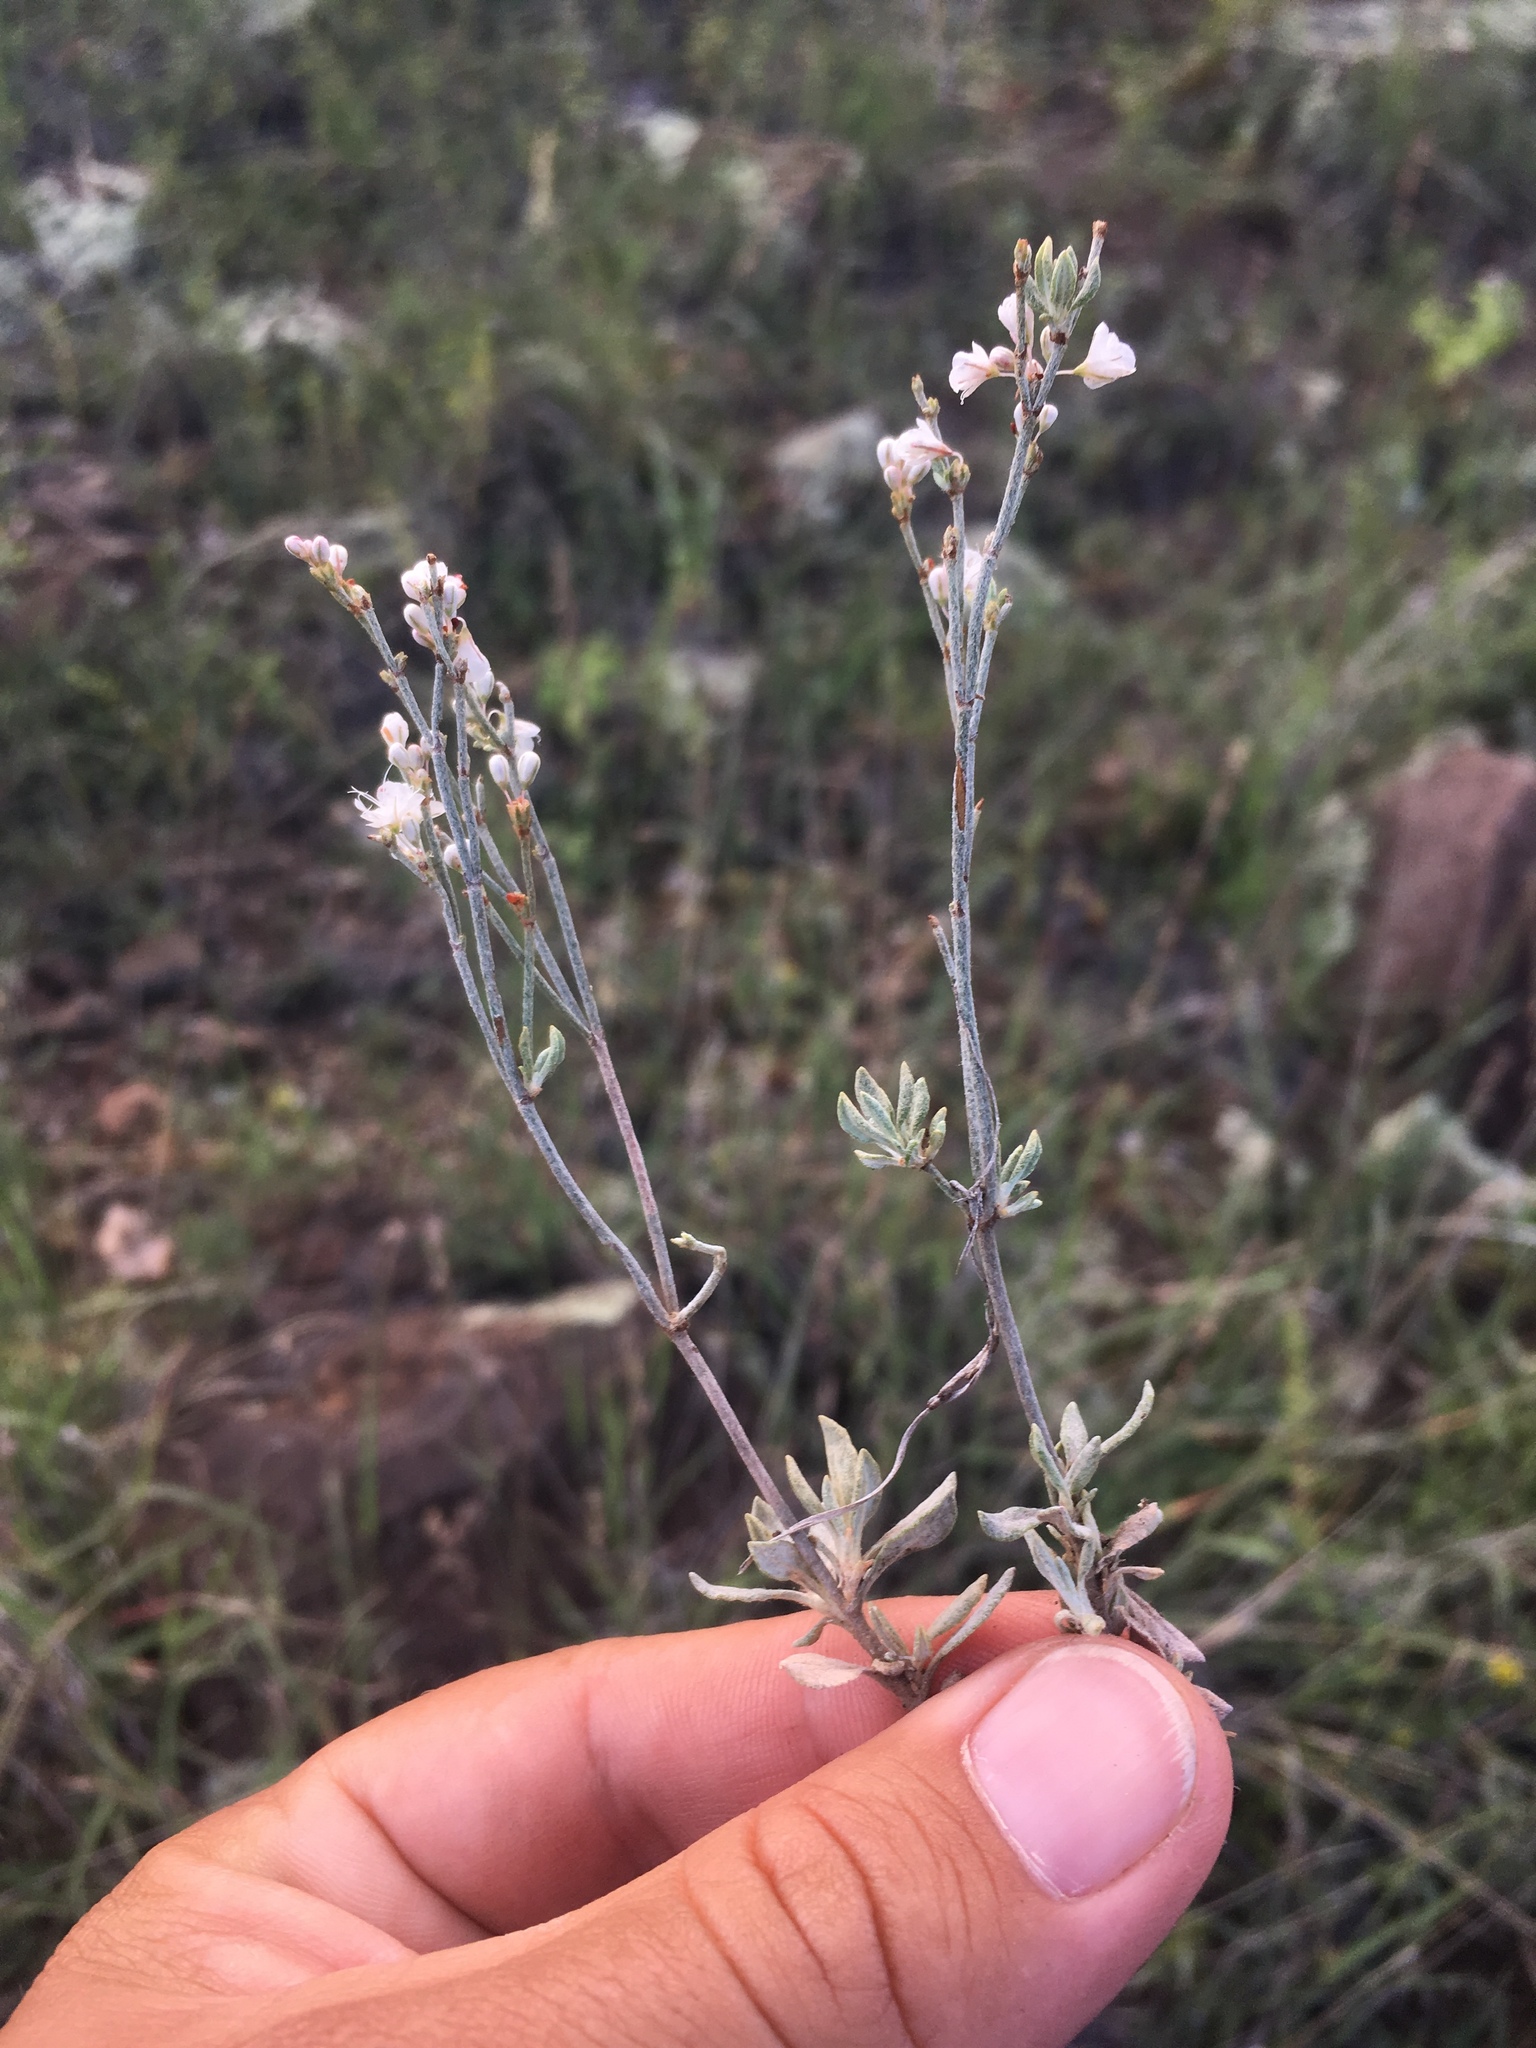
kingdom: Plantae
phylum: Tracheophyta
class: Magnoliopsida
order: Caryophyllales
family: Polygonaceae
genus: Eriogonum
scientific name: Eriogonum wrightii
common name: Bastard-sage
